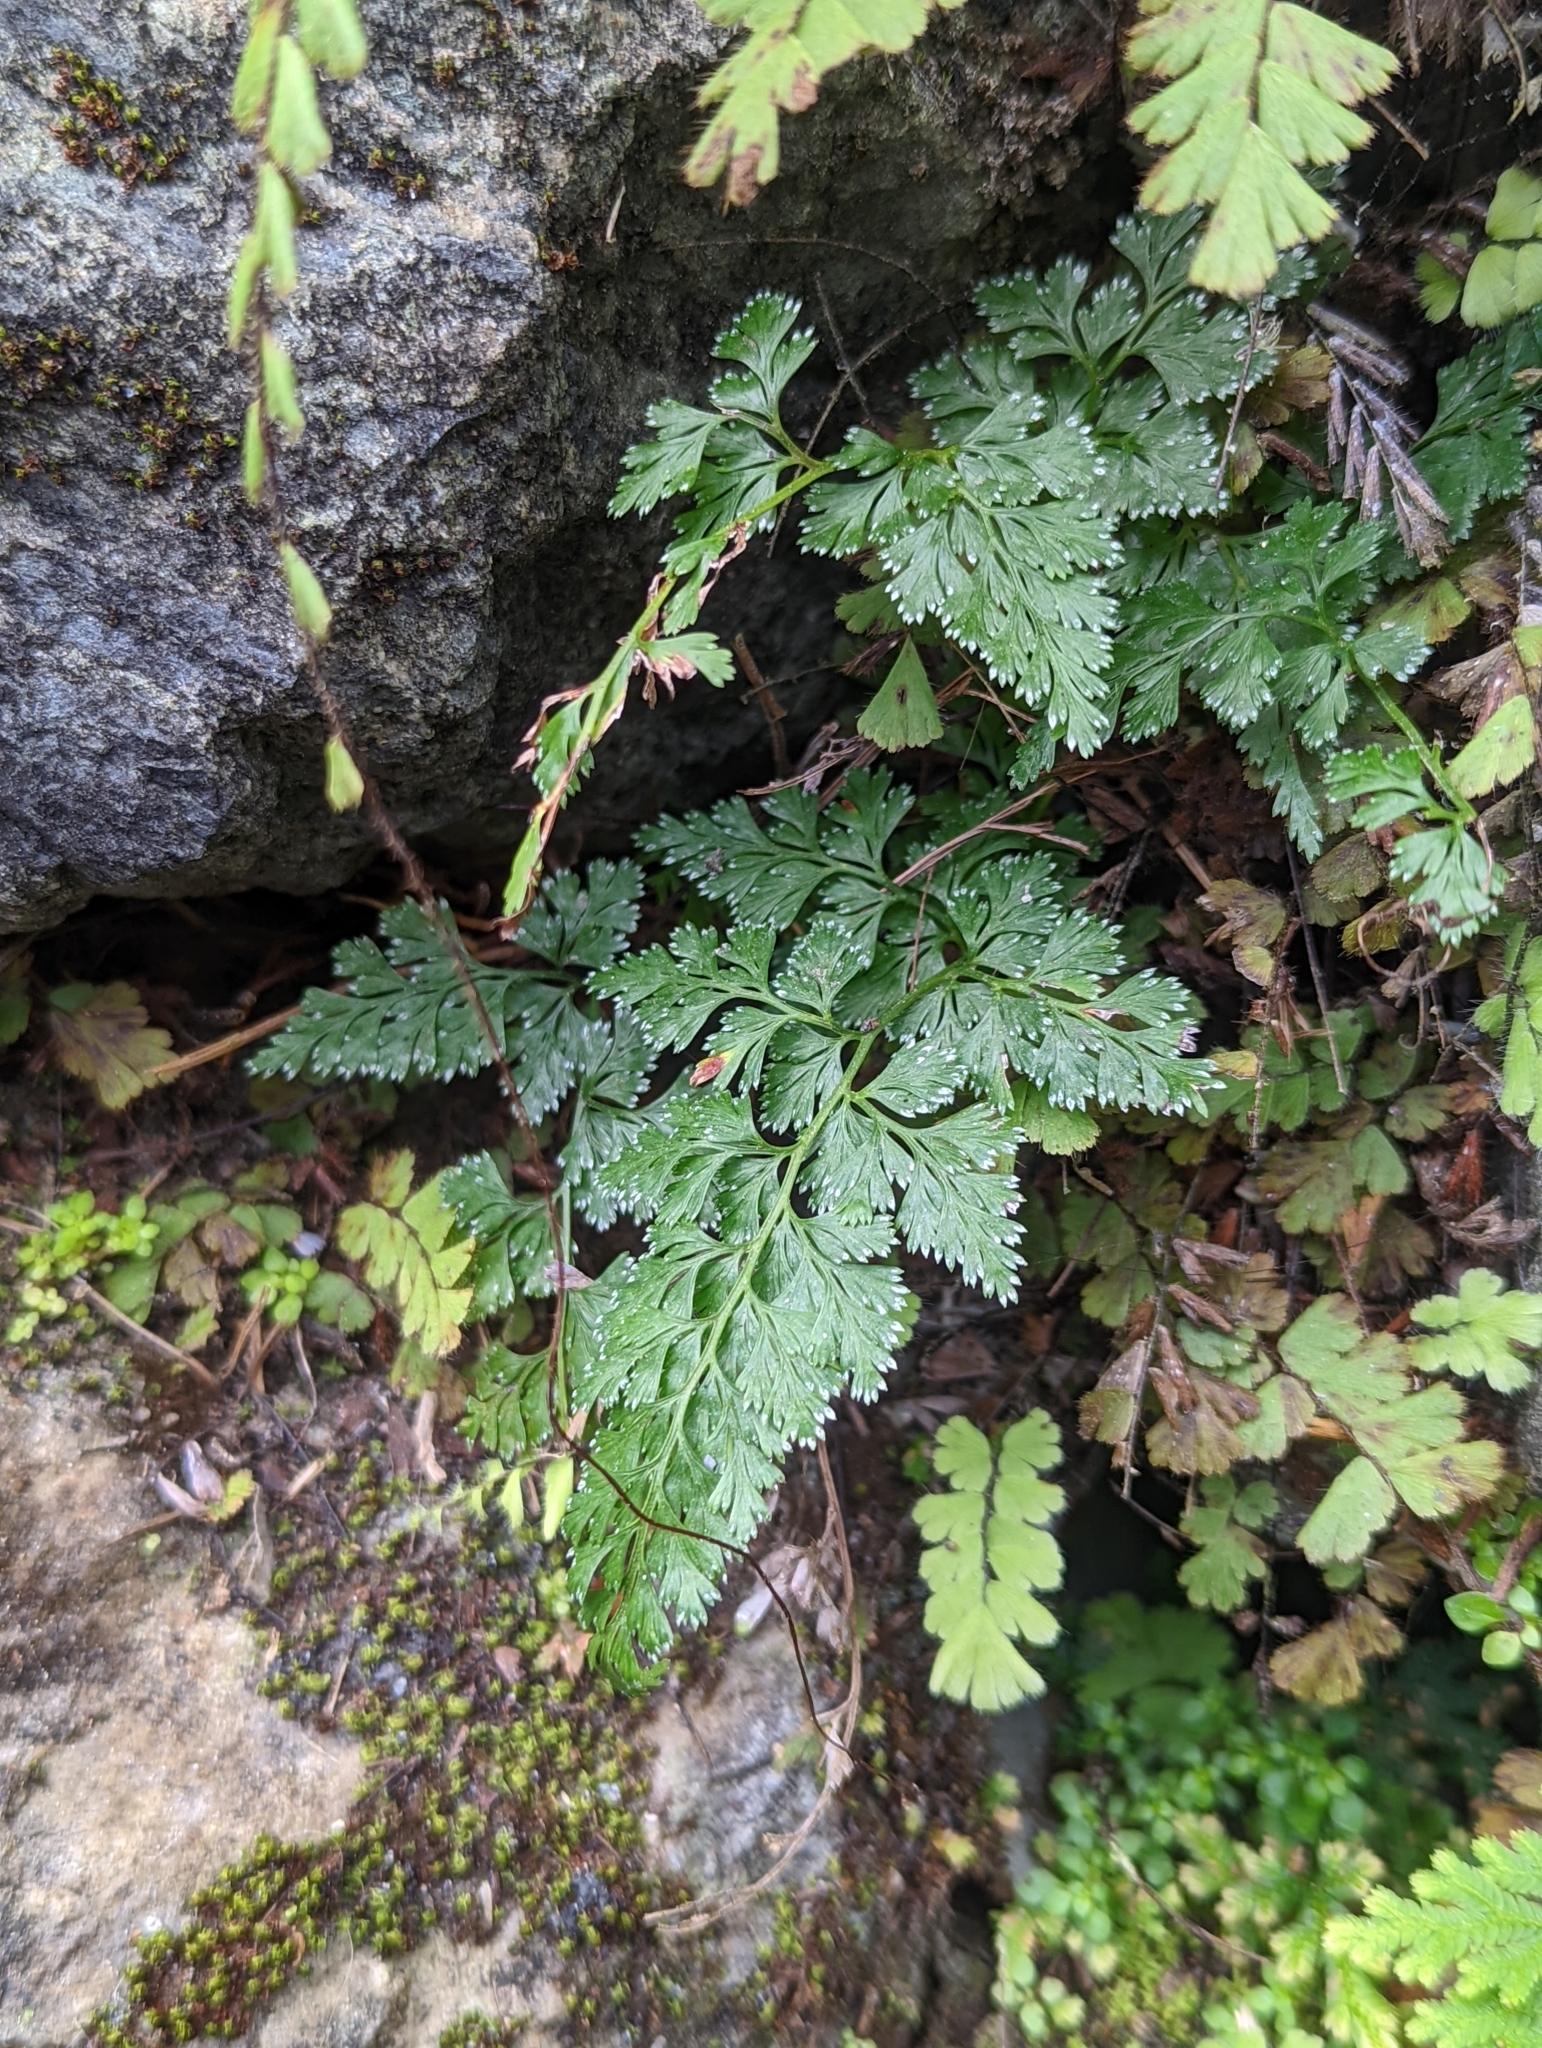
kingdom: Plantae
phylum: Tracheophyta
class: Polypodiopsida
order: Polypodiales
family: Pteridaceae
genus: Onychium
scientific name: Onychium japonicum
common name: Carrot fern
